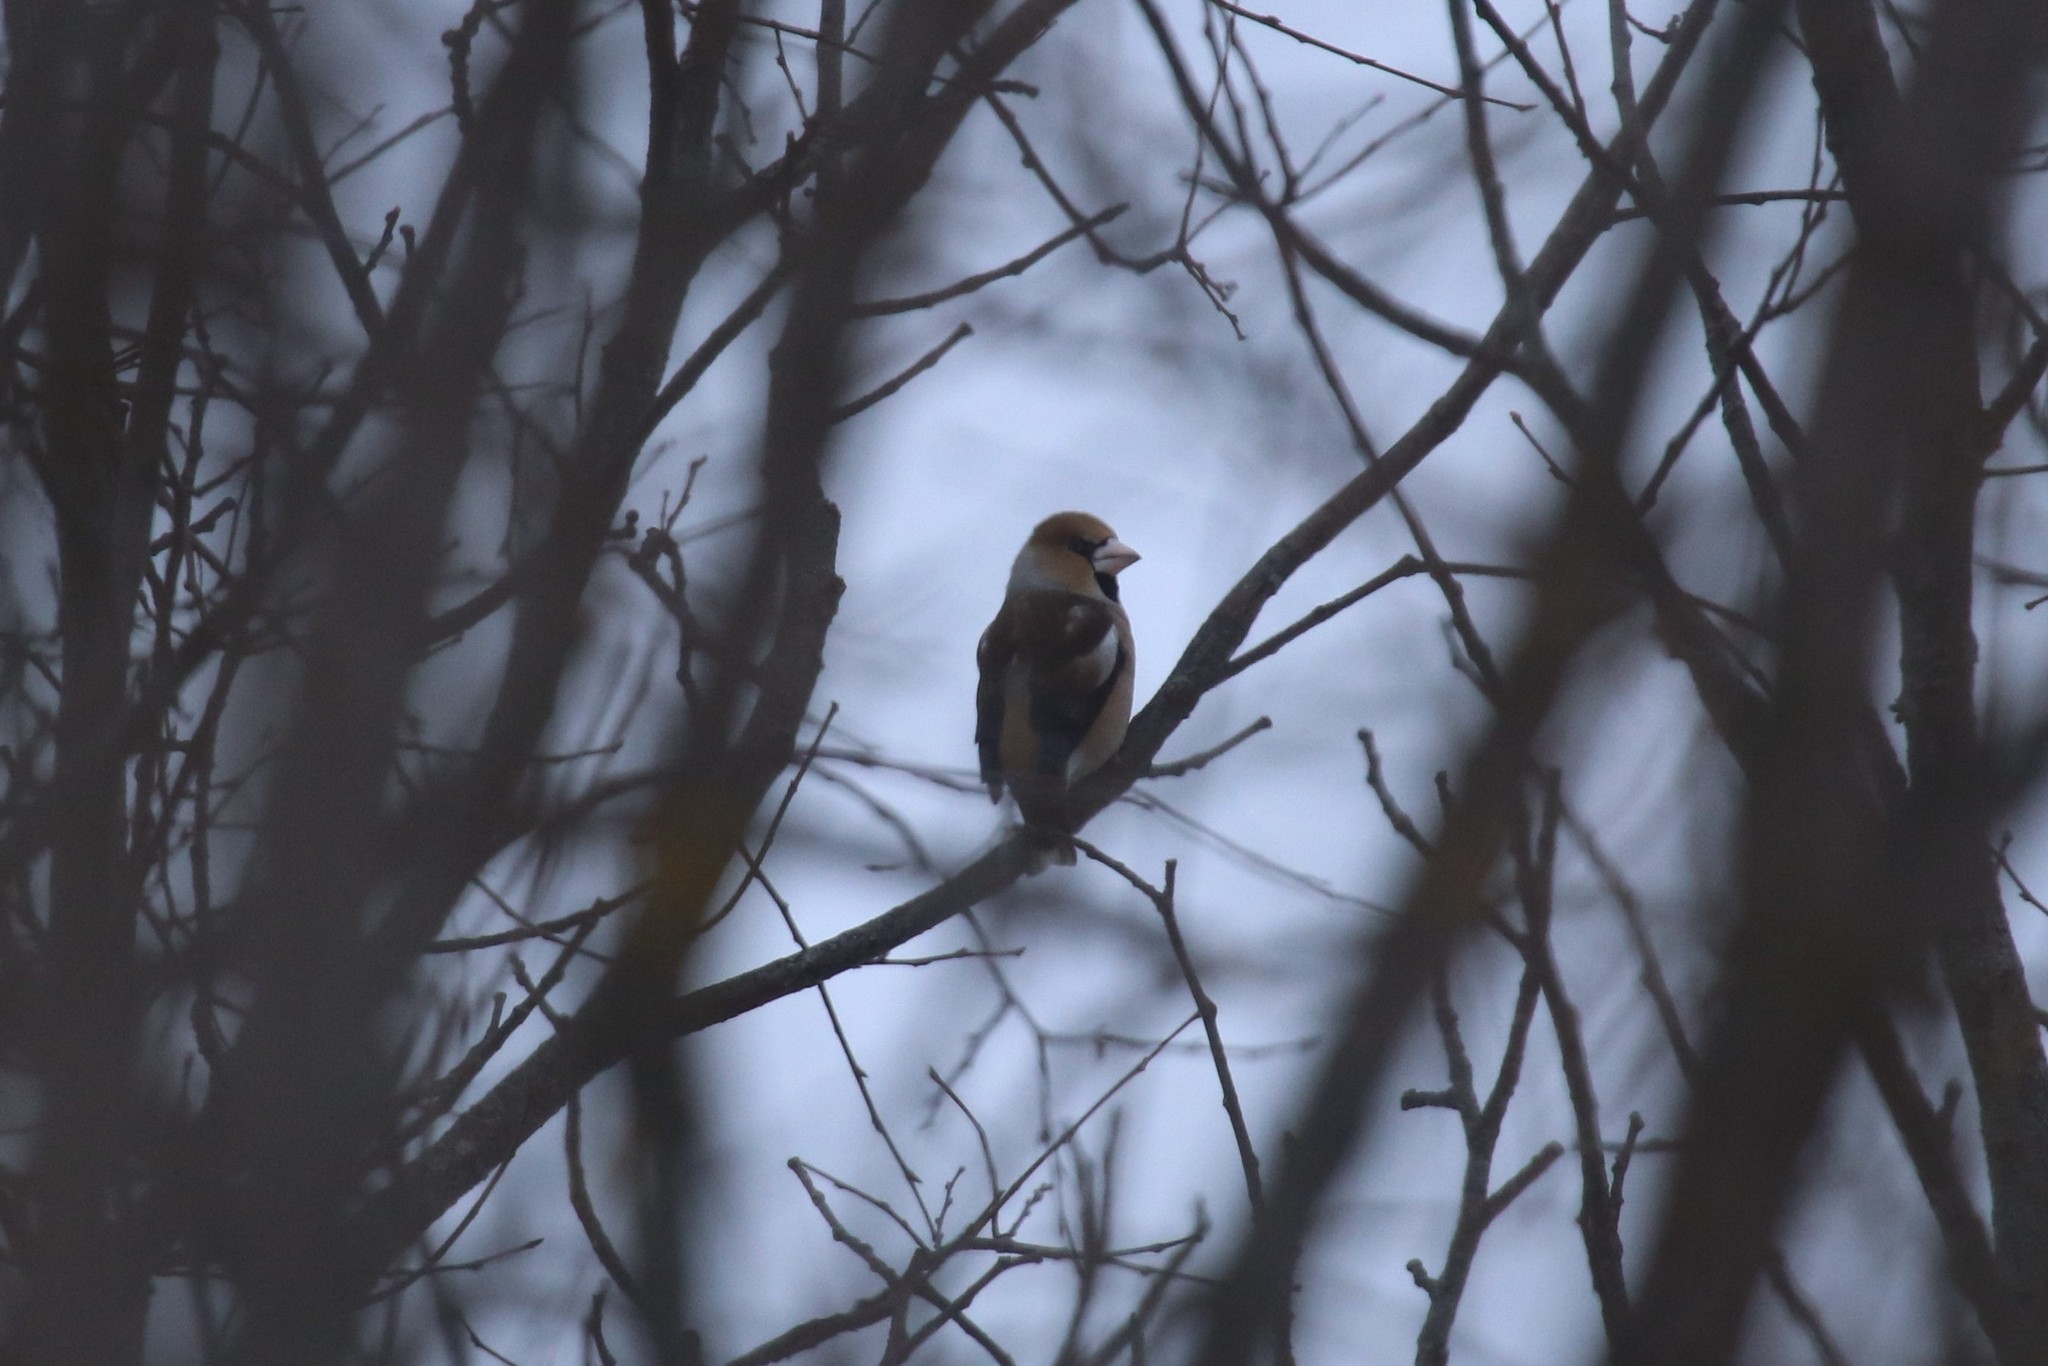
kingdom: Animalia
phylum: Chordata
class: Aves
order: Passeriformes
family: Fringillidae
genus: Coccothraustes
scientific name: Coccothraustes coccothraustes
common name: Hawfinch
